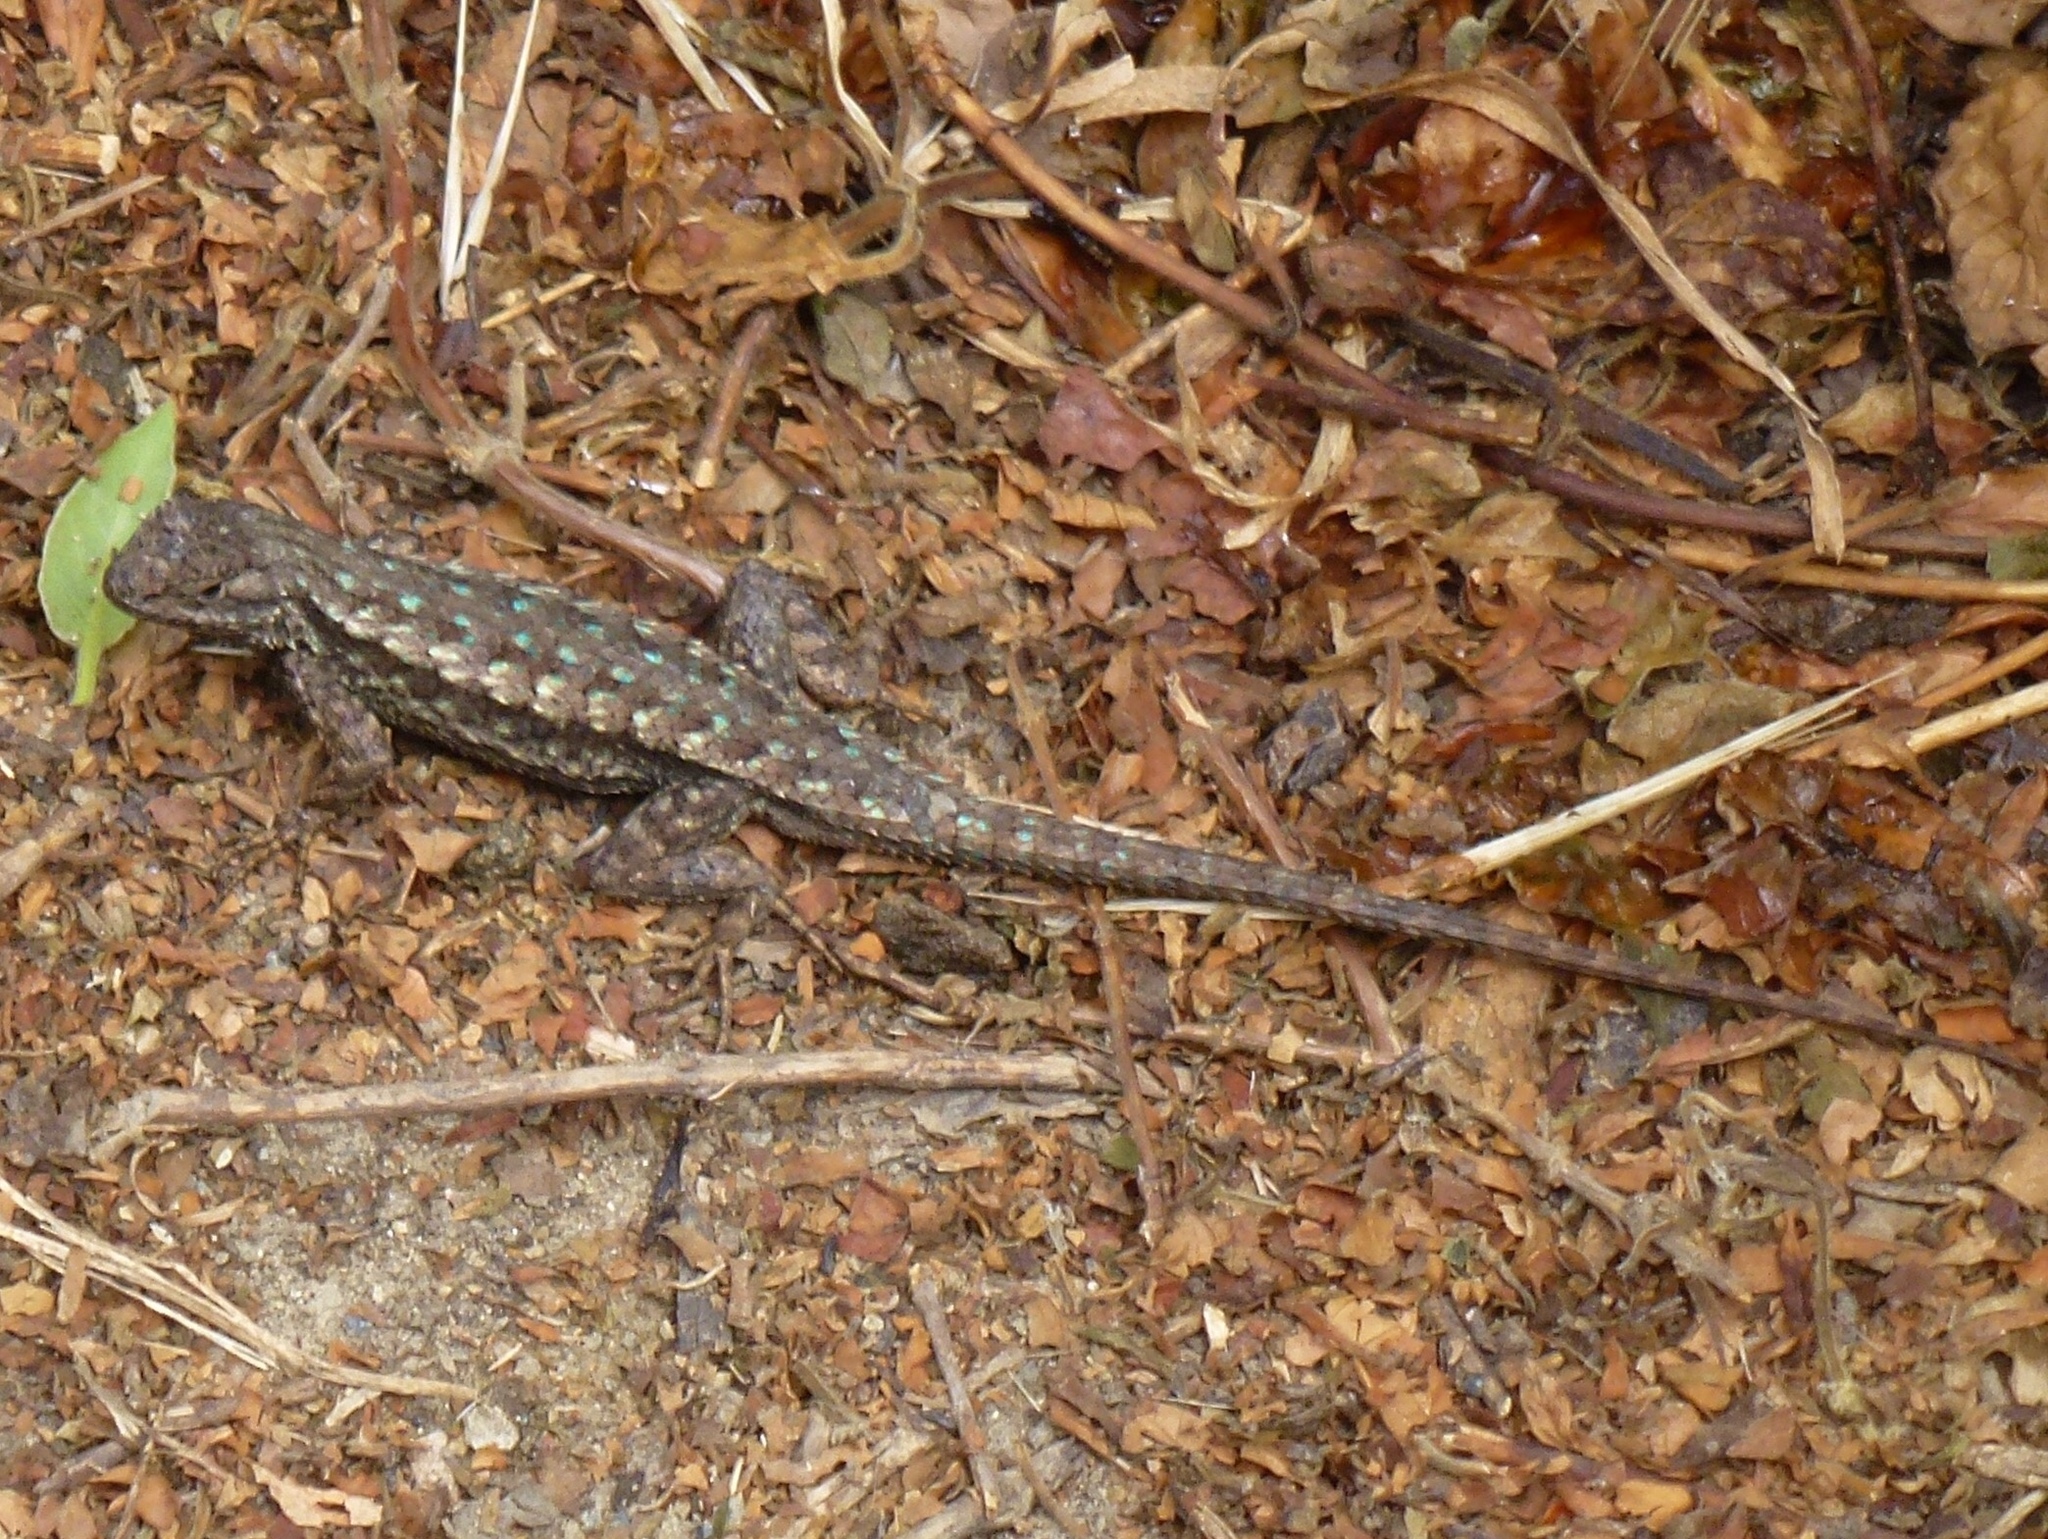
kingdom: Animalia
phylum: Chordata
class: Squamata
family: Phrynosomatidae
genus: Sceloporus
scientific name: Sceloporus occidentalis
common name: Western fence lizard
